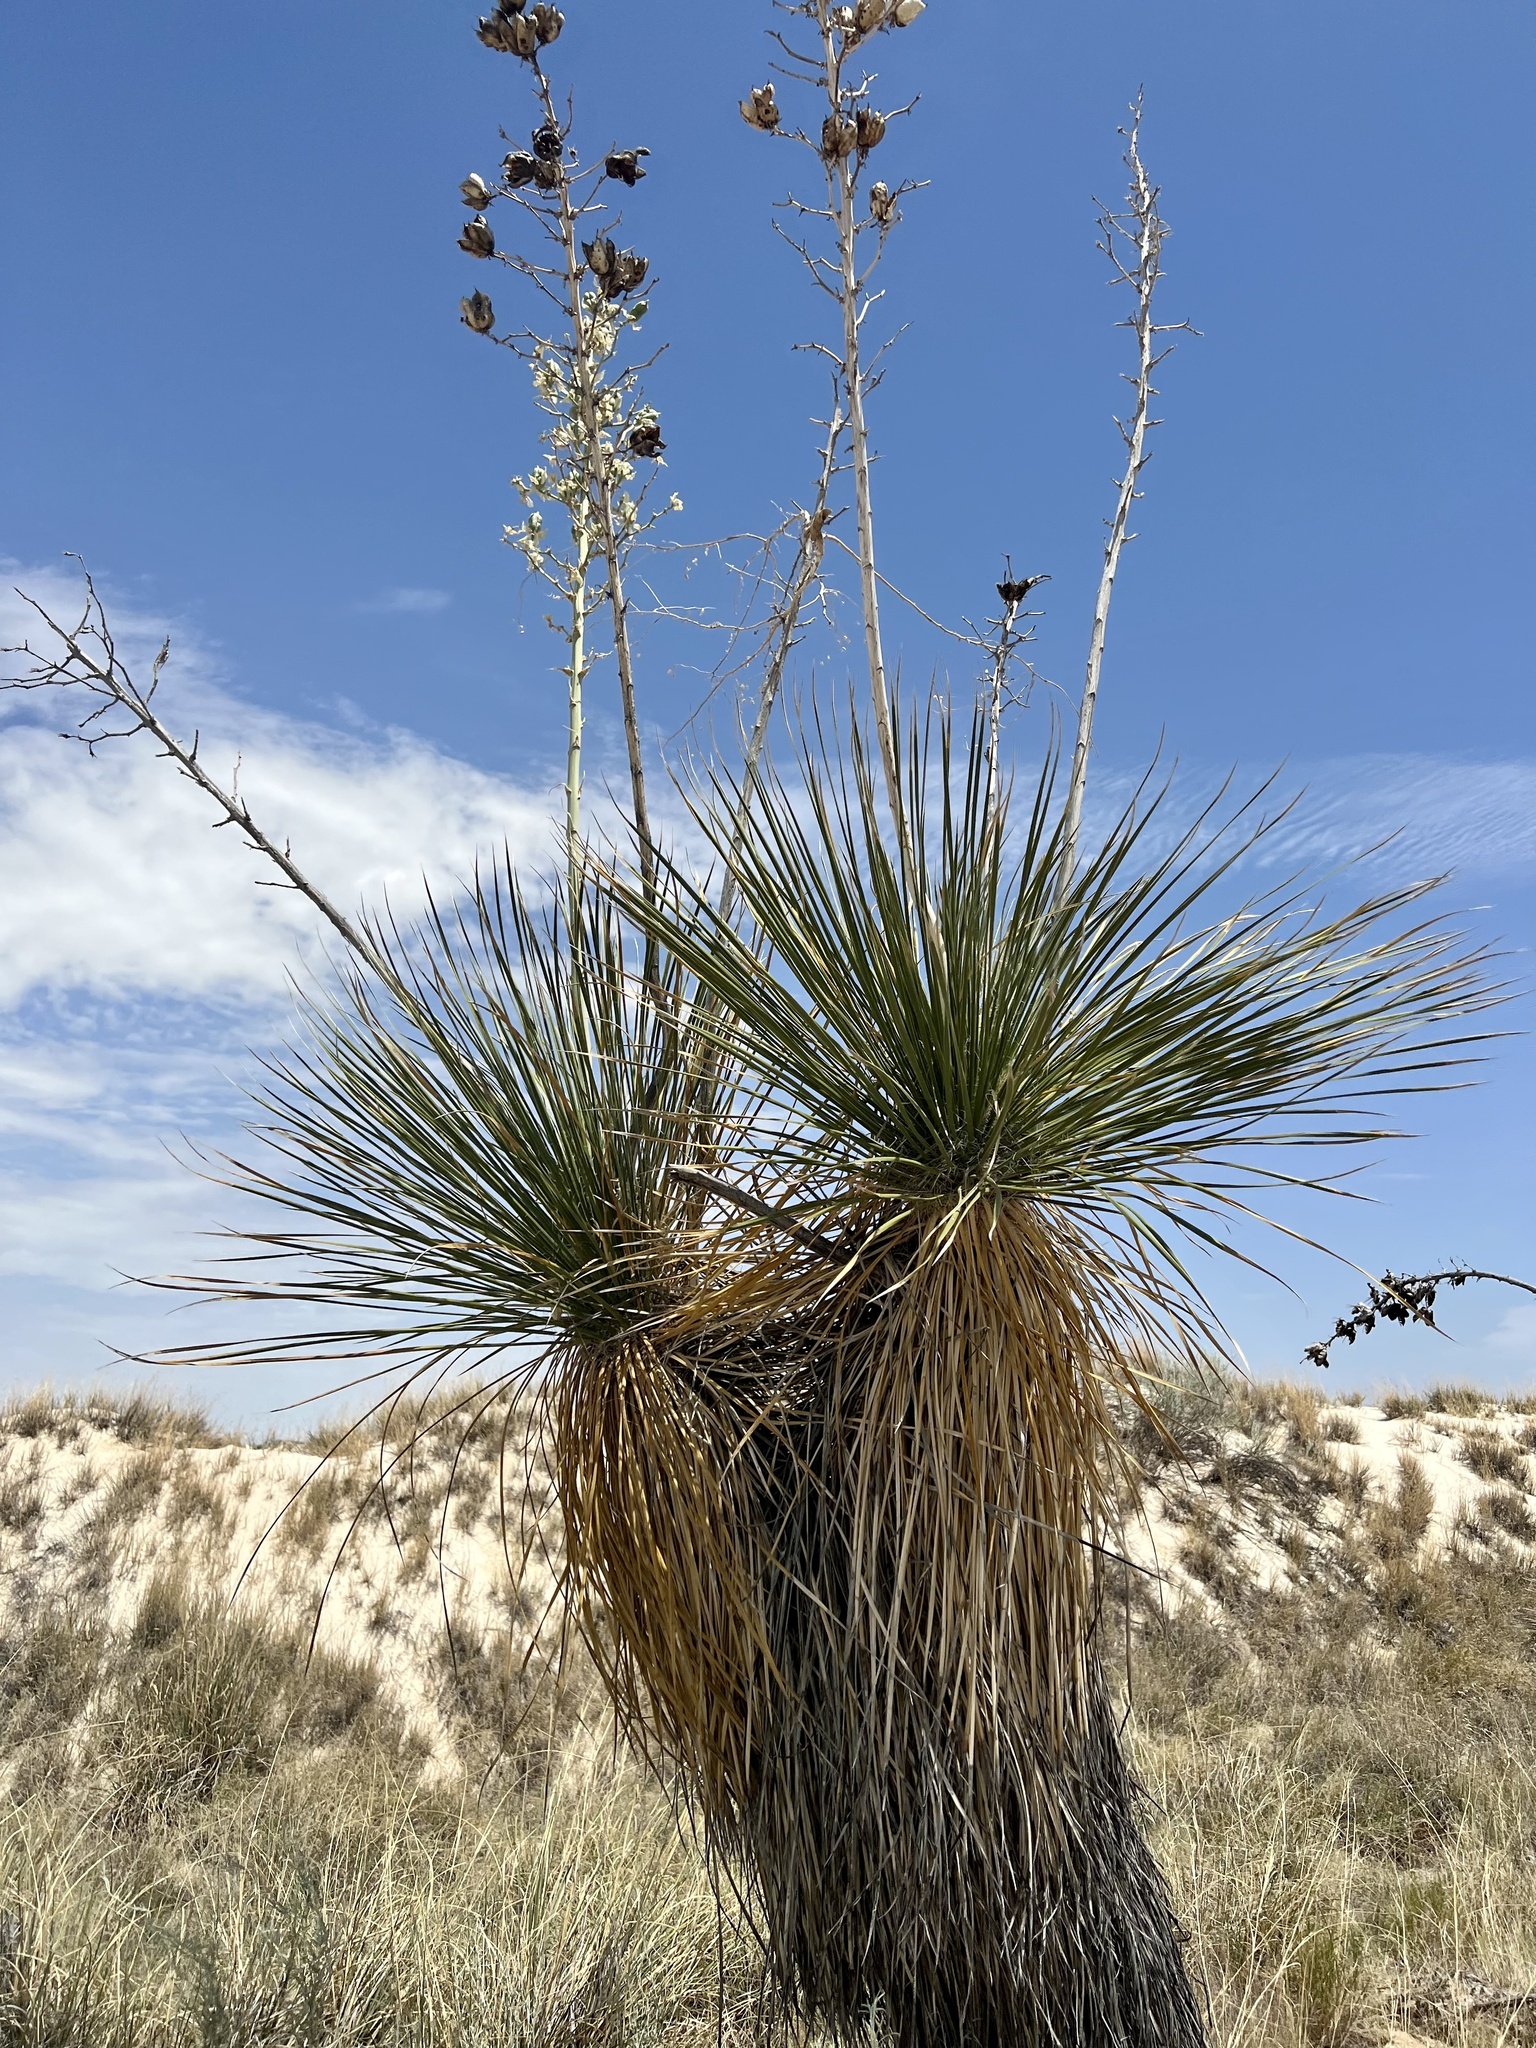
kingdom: Plantae
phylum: Tracheophyta
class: Liliopsida
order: Asparagales
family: Asparagaceae
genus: Yucca
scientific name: Yucca elata
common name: Palmella
